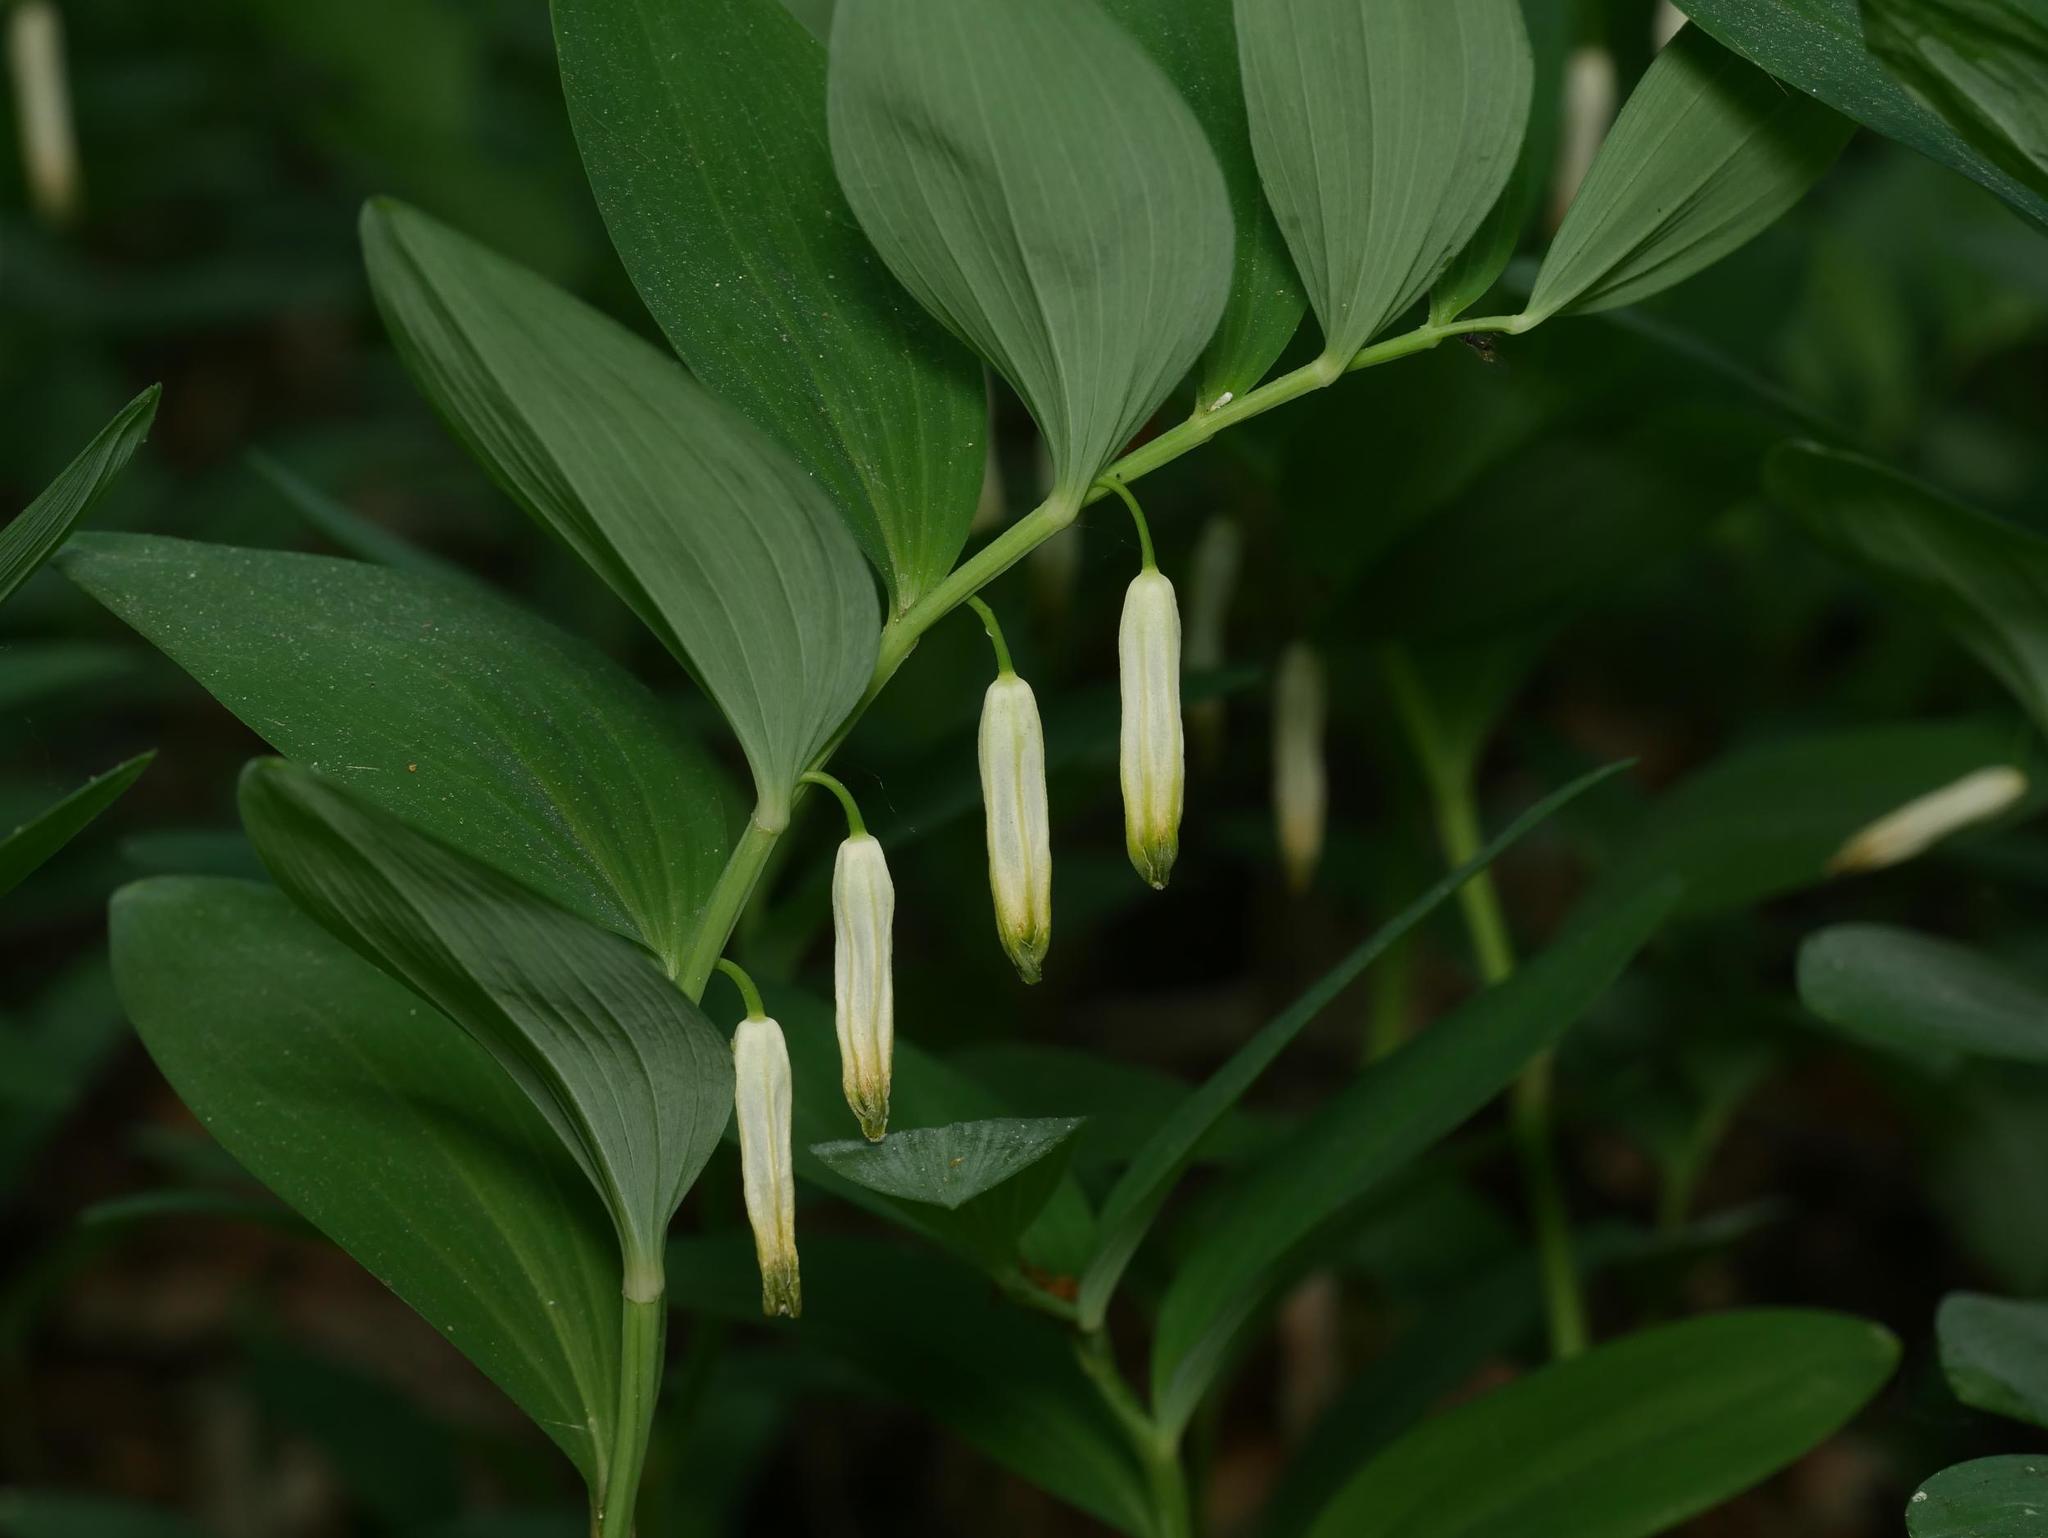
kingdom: Plantae
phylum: Tracheophyta
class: Liliopsida
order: Asparagales
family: Asparagaceae
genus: Polygonatum
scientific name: Polygonatum odoratum
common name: Angular solomon's-seal
